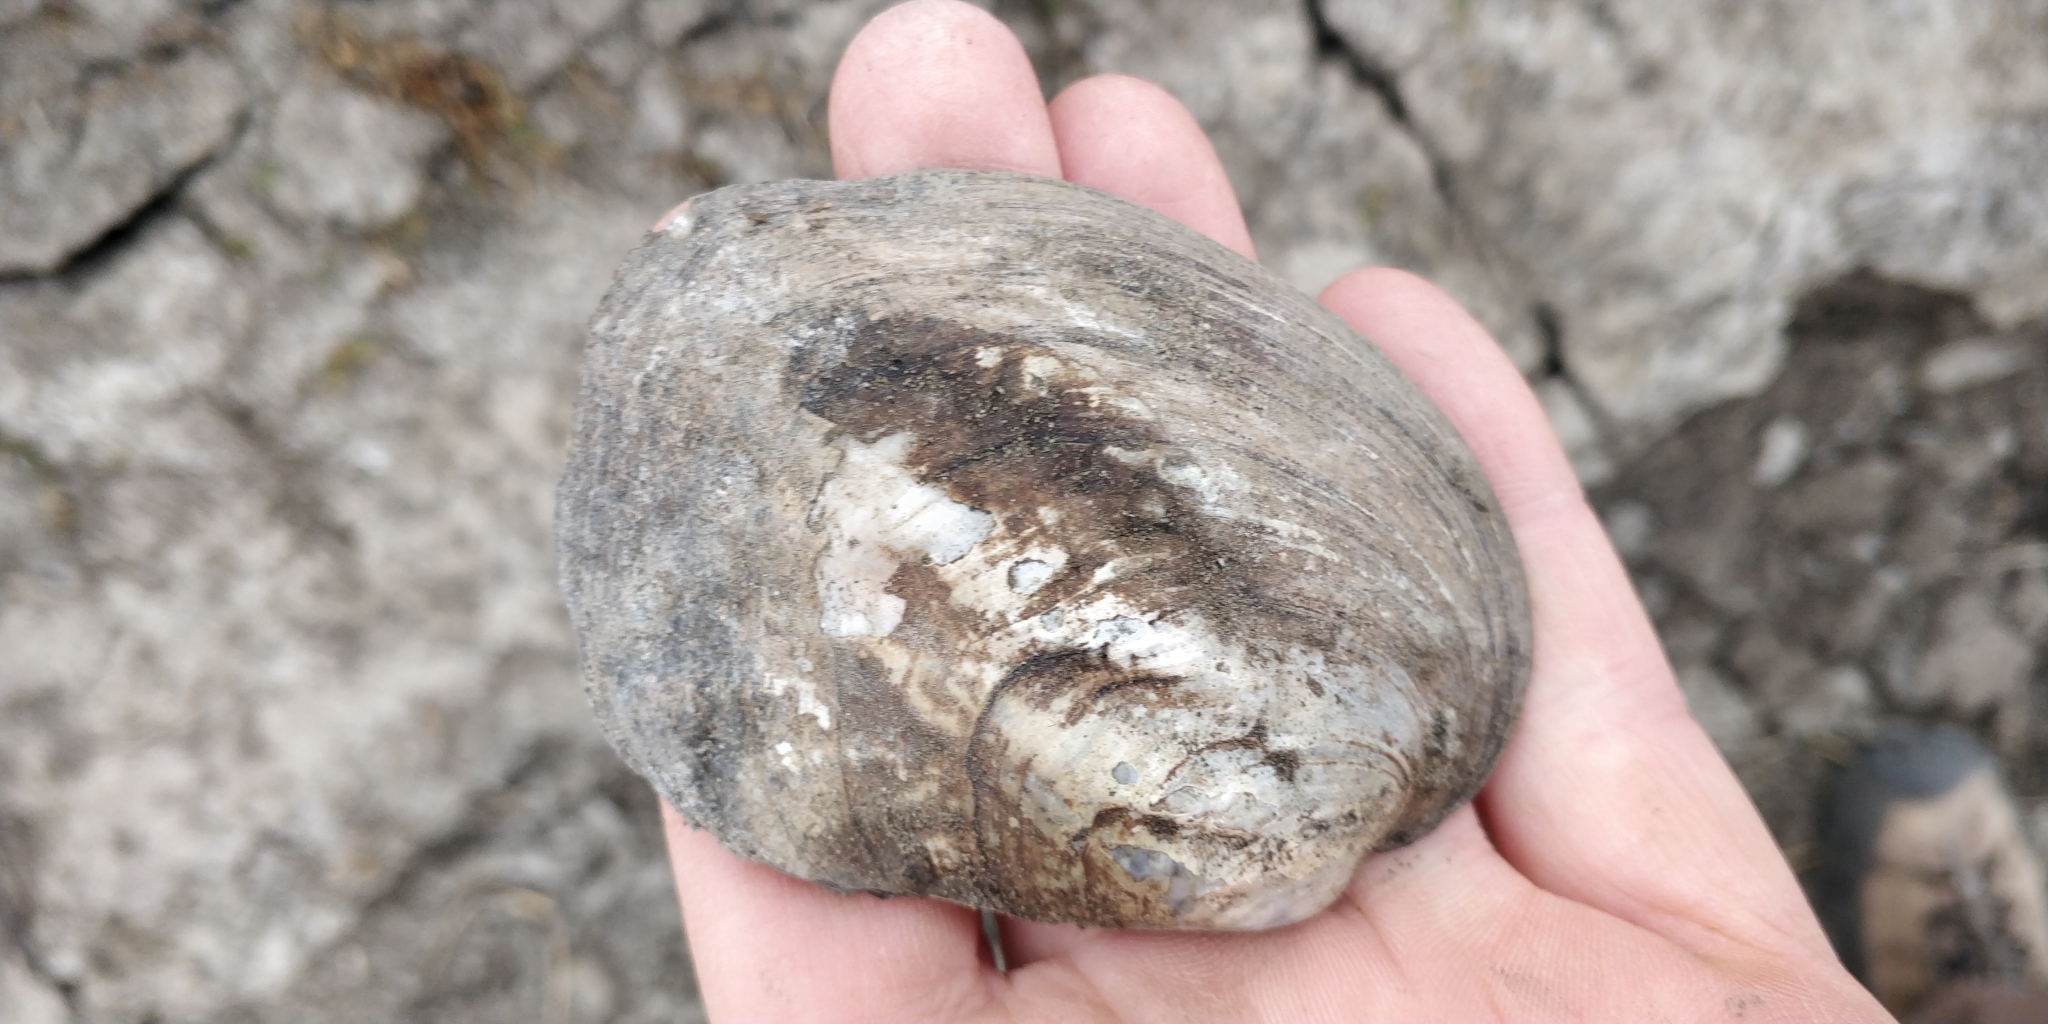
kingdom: Animalia
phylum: Mollusca
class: Bivalvia
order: Unionida
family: Unionidae
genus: Amblema
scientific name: Amblema plicata
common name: Threeridge
